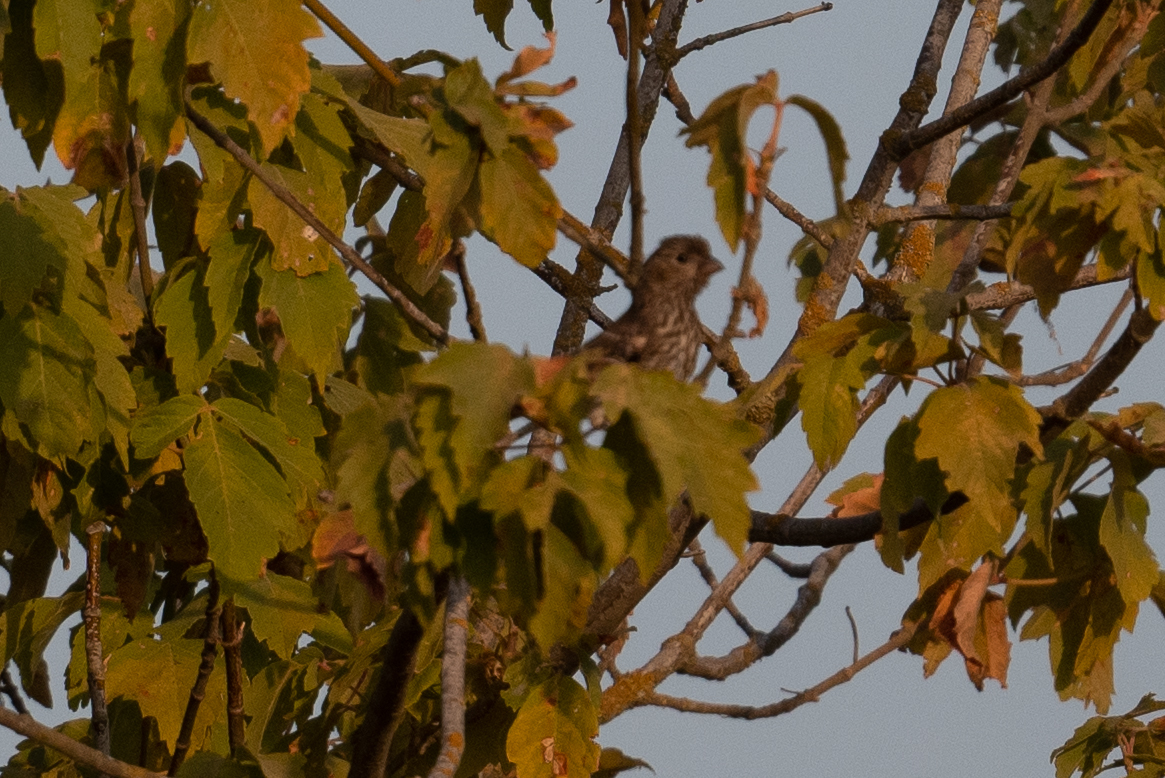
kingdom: Animalia
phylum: Chordata
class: Aves
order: Passeriformes
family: Fringillidae
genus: Haemorhous
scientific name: Haemorhous mexicanus
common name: House finch
